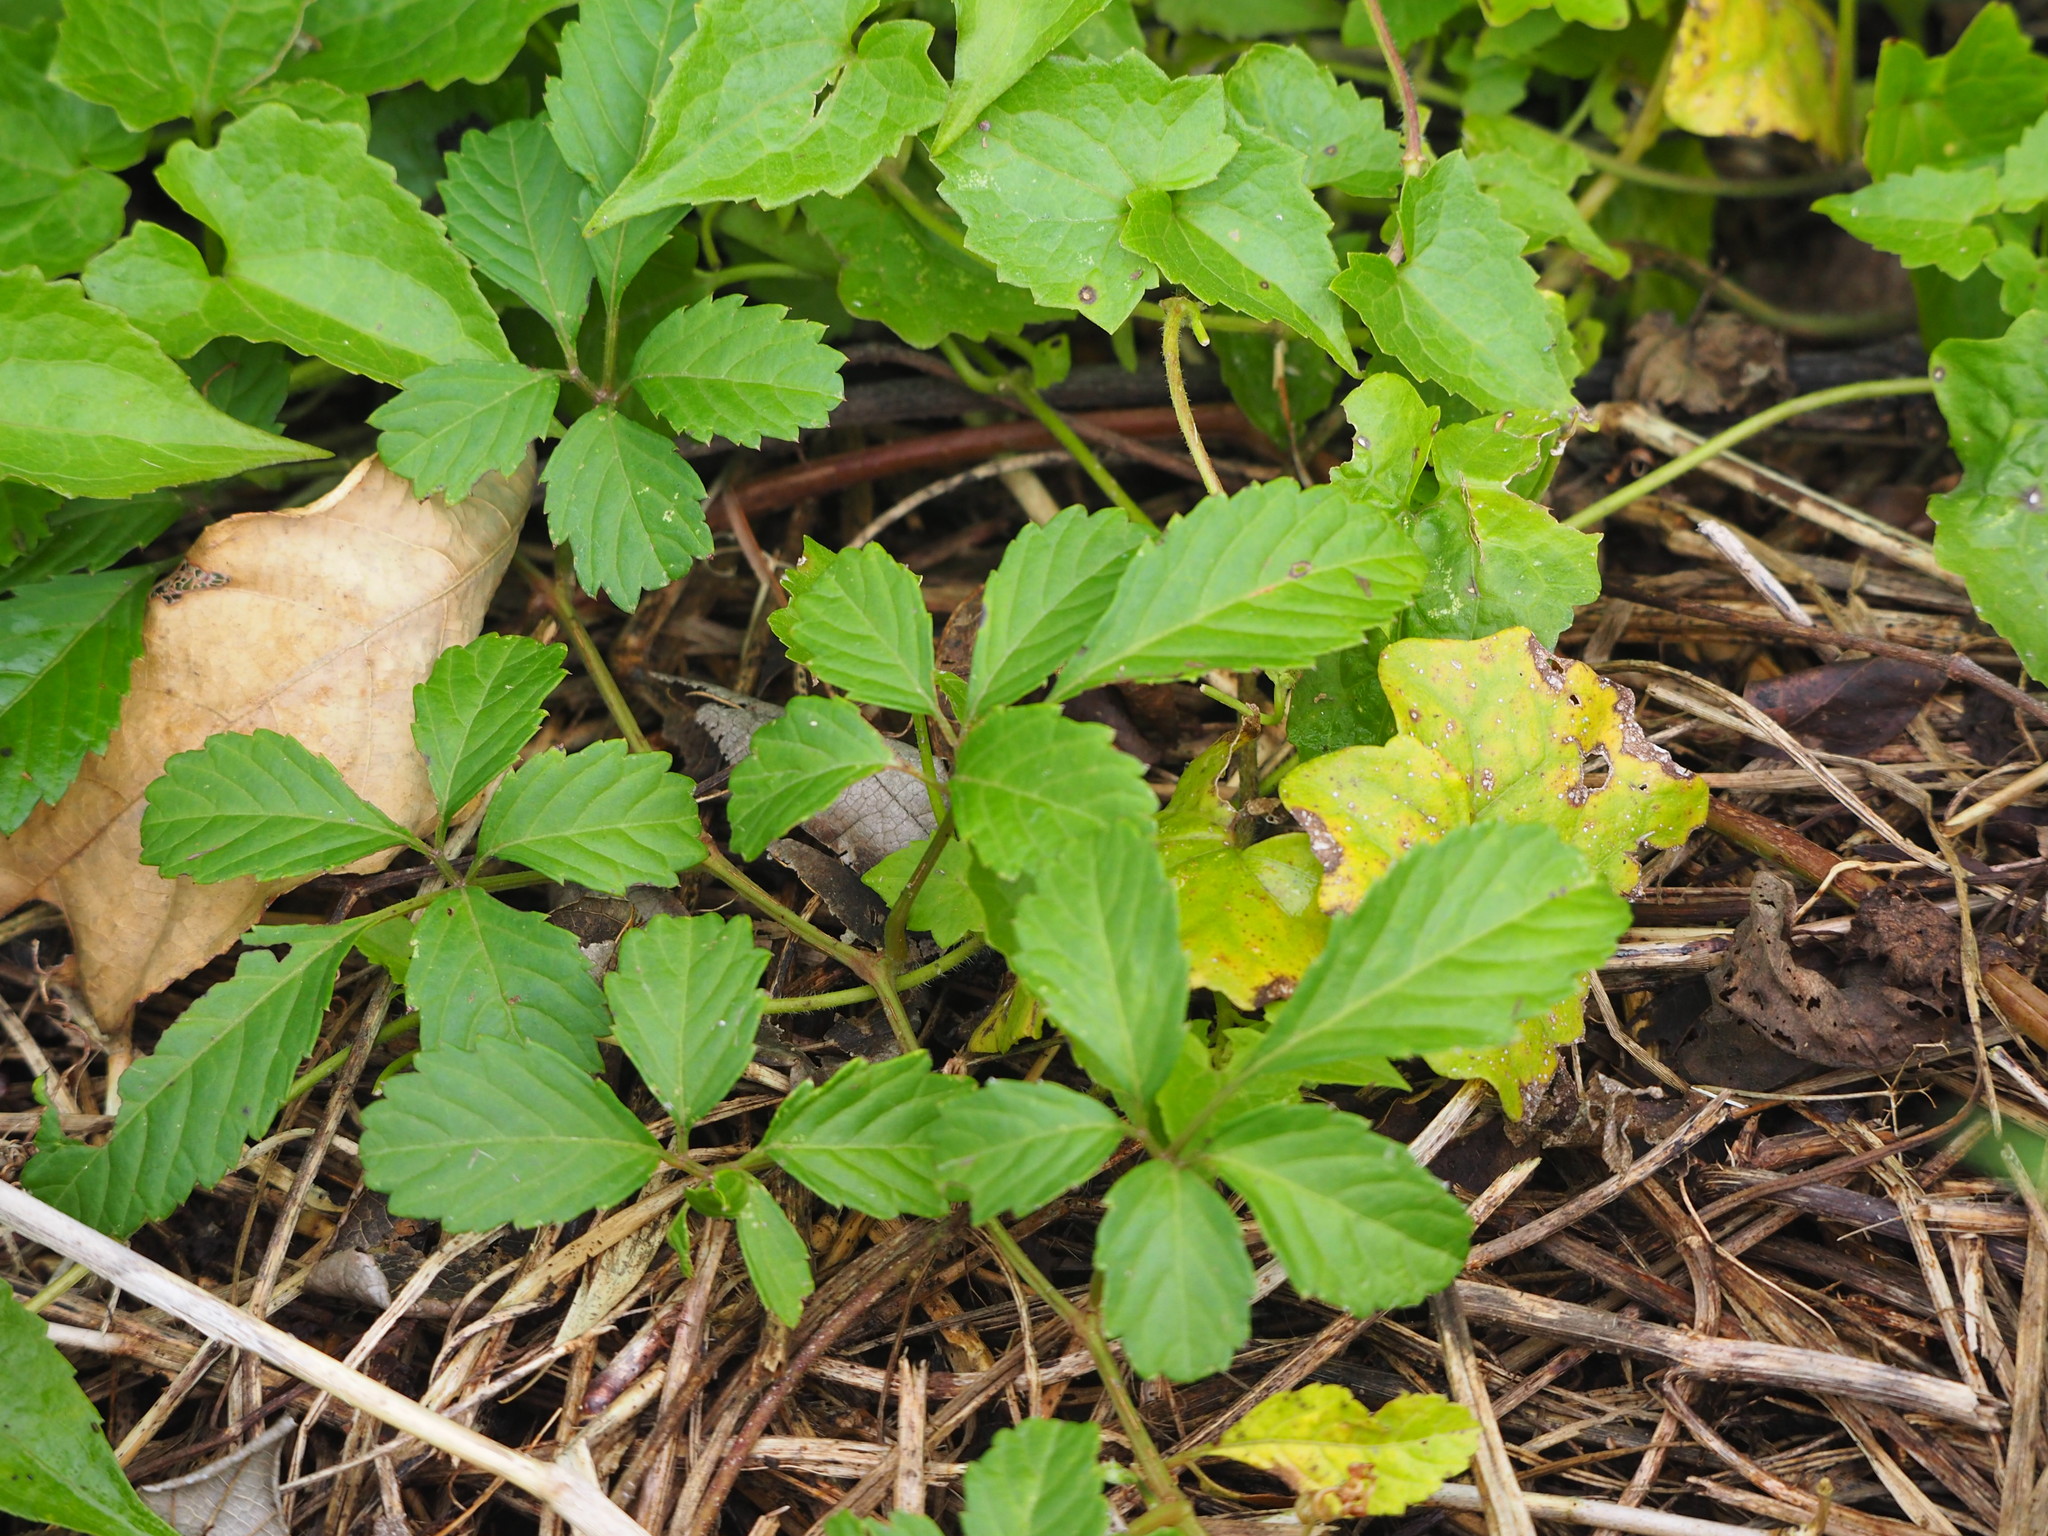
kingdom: Plantae
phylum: Tracheophyta
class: Magnoliopsida
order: Vitales
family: Vitaceae
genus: Causonis
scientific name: Causonis japonica
